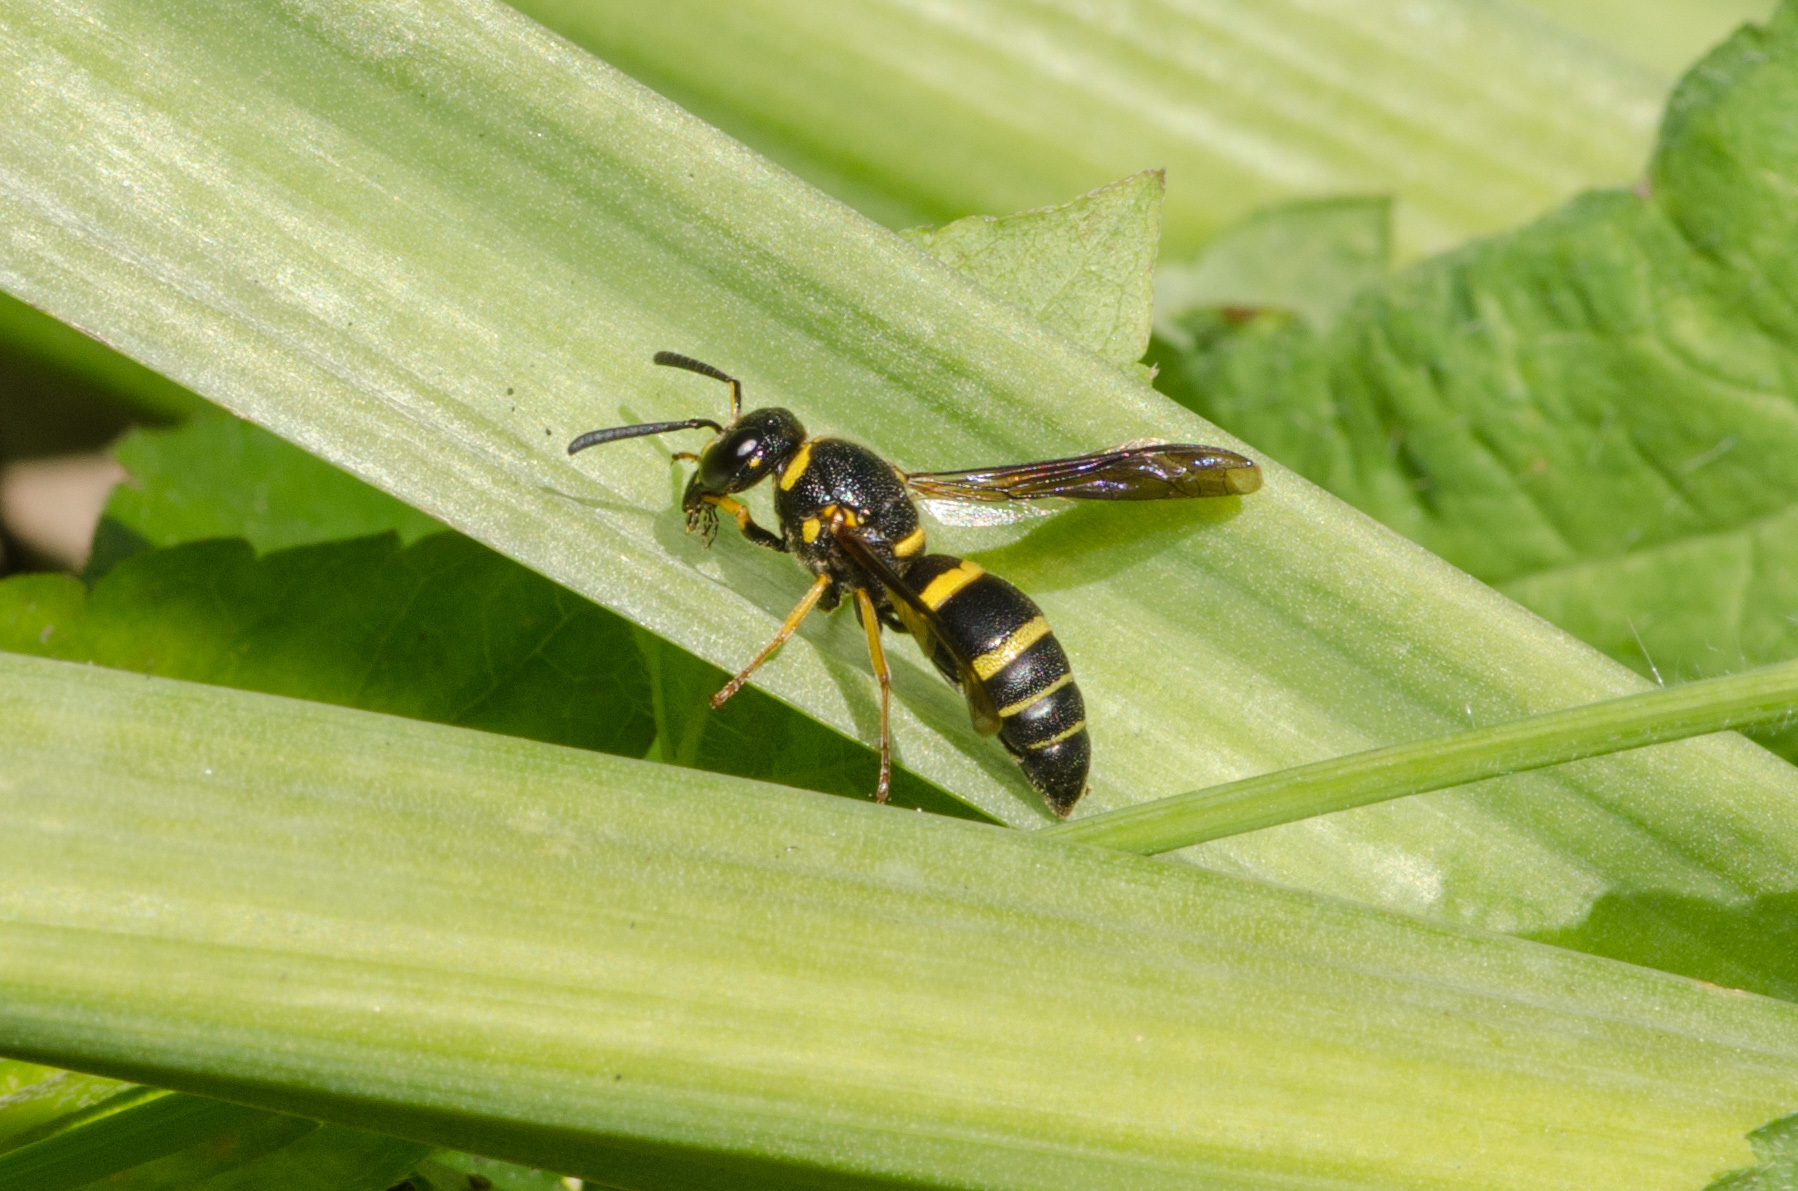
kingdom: Animalia
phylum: Arthropoda
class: Insecta
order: Hymenoptera
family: Eumenidae
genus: Euodynerus
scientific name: Euodynerus foraminatus
